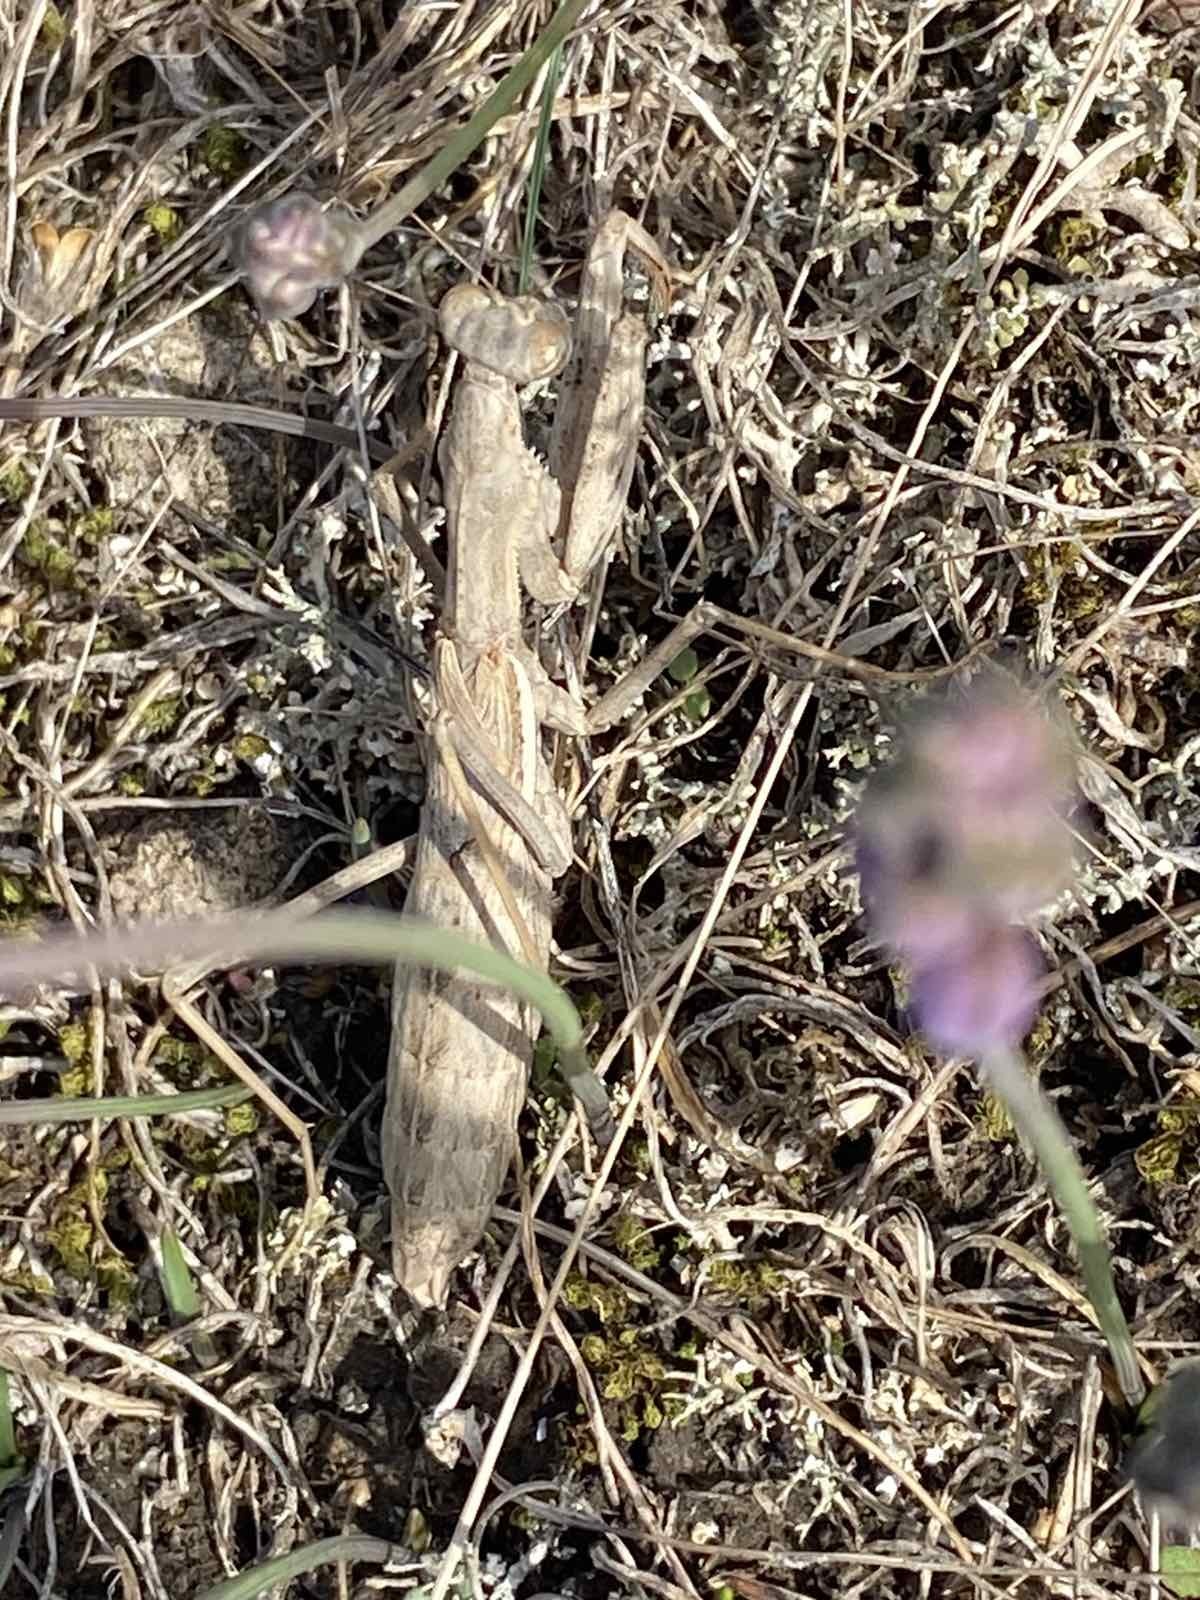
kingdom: Animalia
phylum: Arthropoda
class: Insecta
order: Mantodea
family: Rivetinidae
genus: Bolivaria
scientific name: Bolivaria brachyptera
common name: Bolivar's short winged mantis
